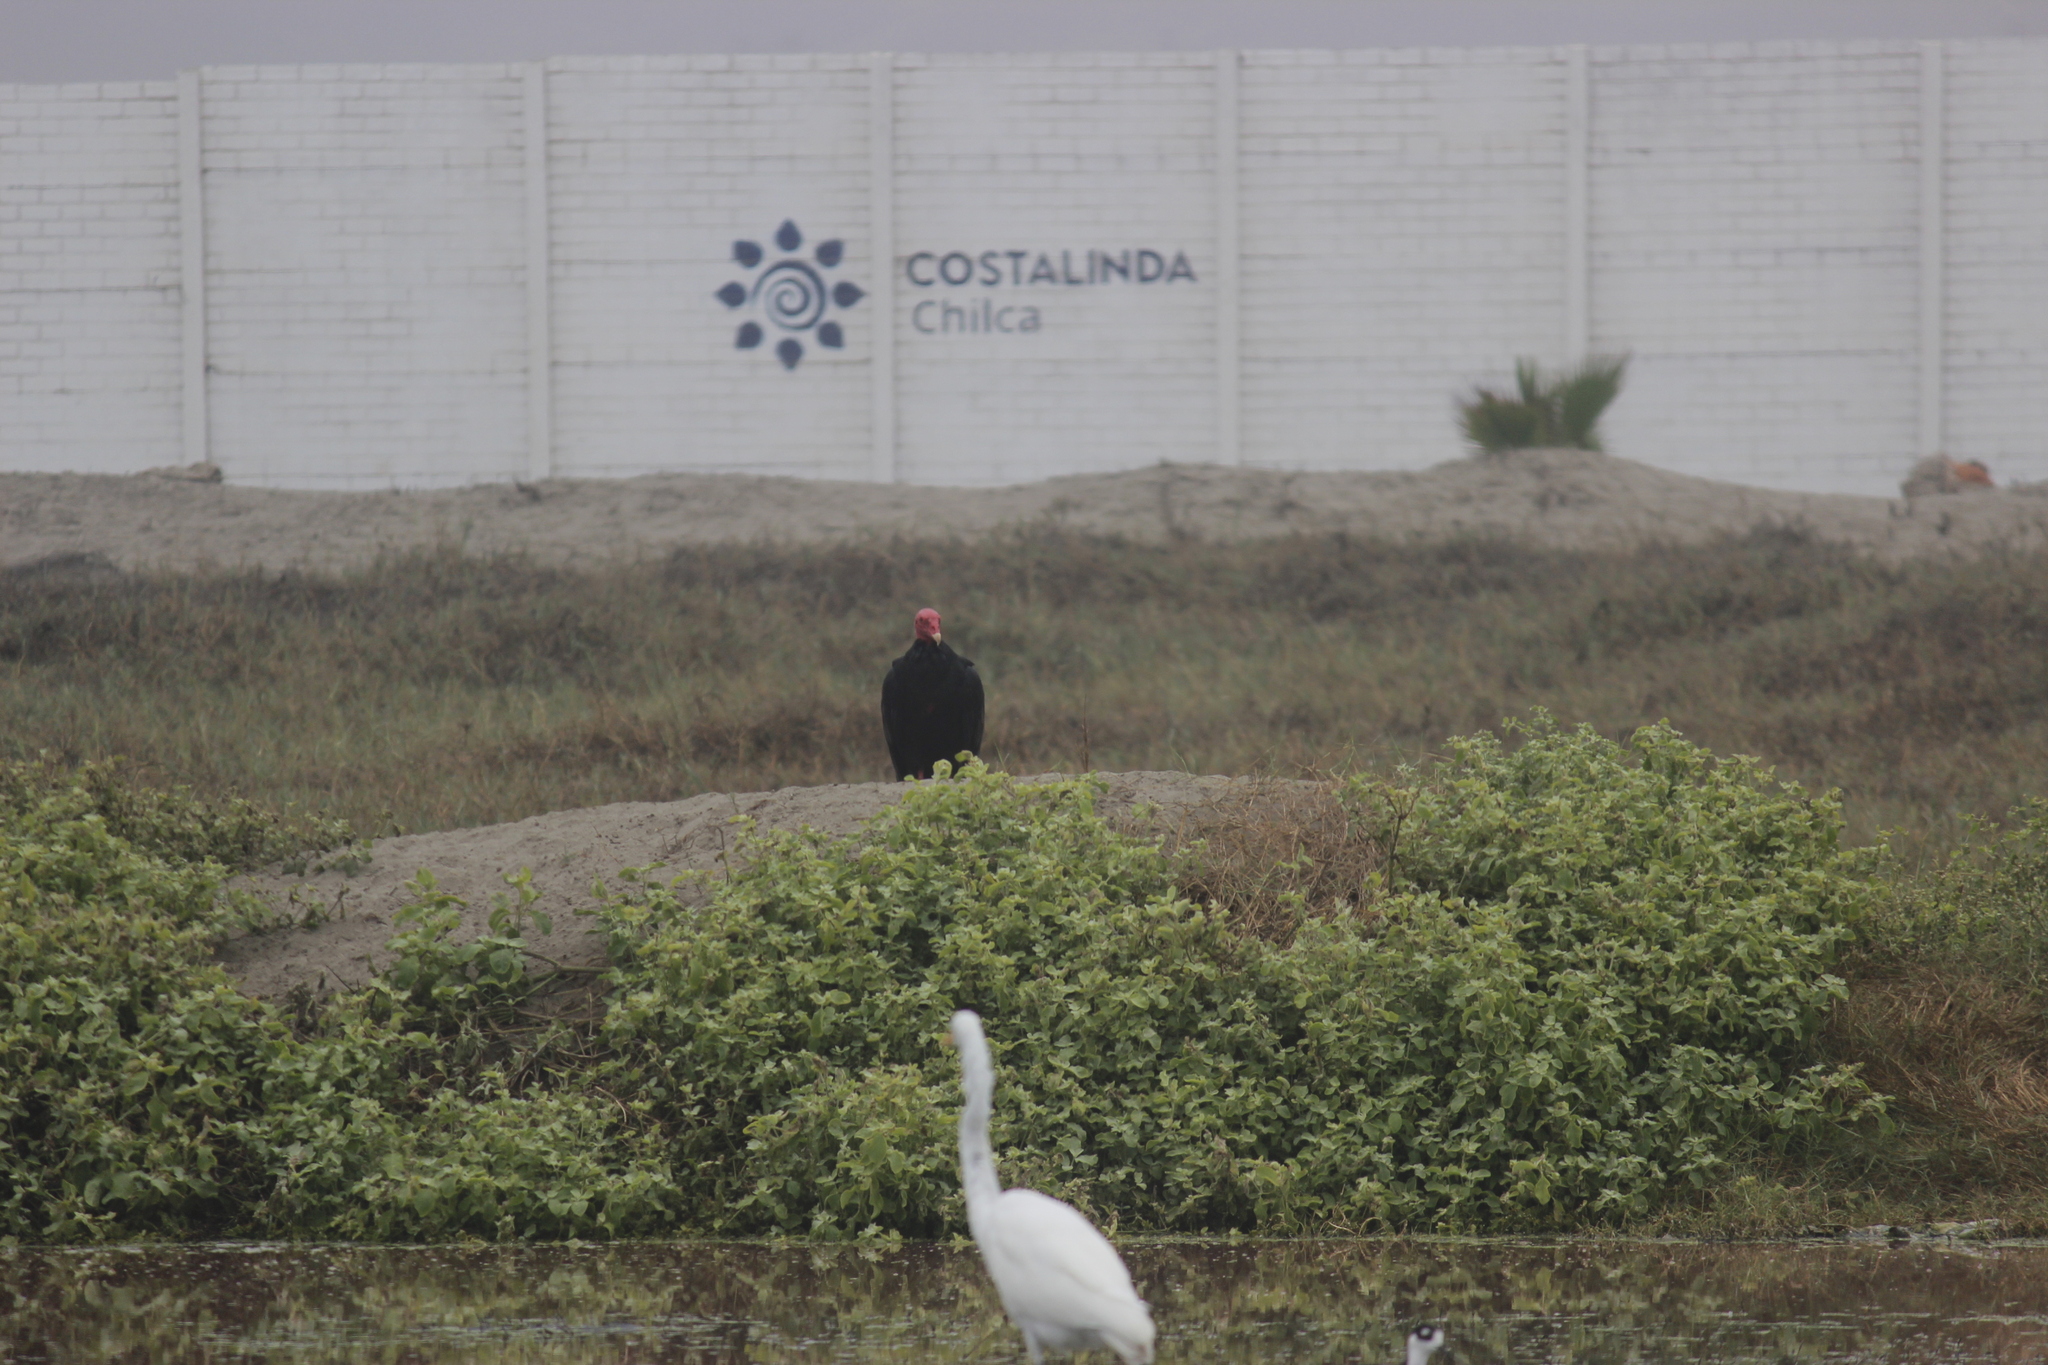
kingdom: Animalia
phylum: Chordata
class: Aves
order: Accipitriformes
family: Cathartidae
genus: Cathartes
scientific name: Cathartes aura
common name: Turkey vulture
